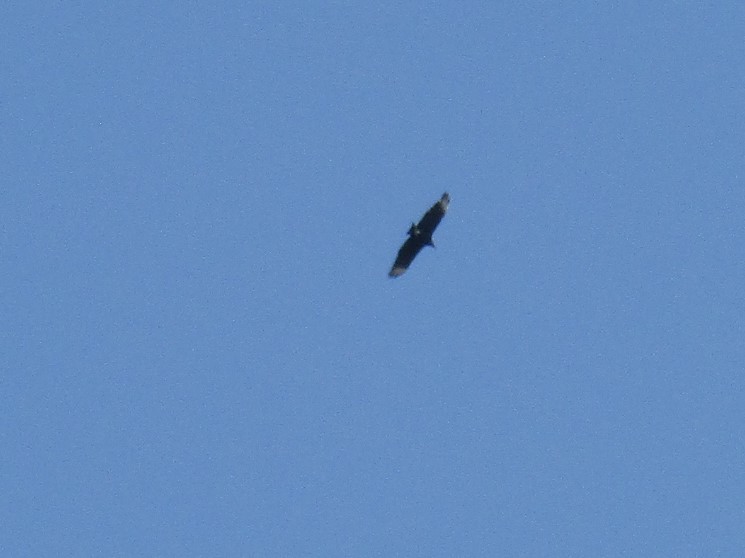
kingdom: Animalia
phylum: Chordata
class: Aves
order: Accipitriformes
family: Cathartidae
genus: Coragyps
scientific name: Coragyps atratus
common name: Black vulture
